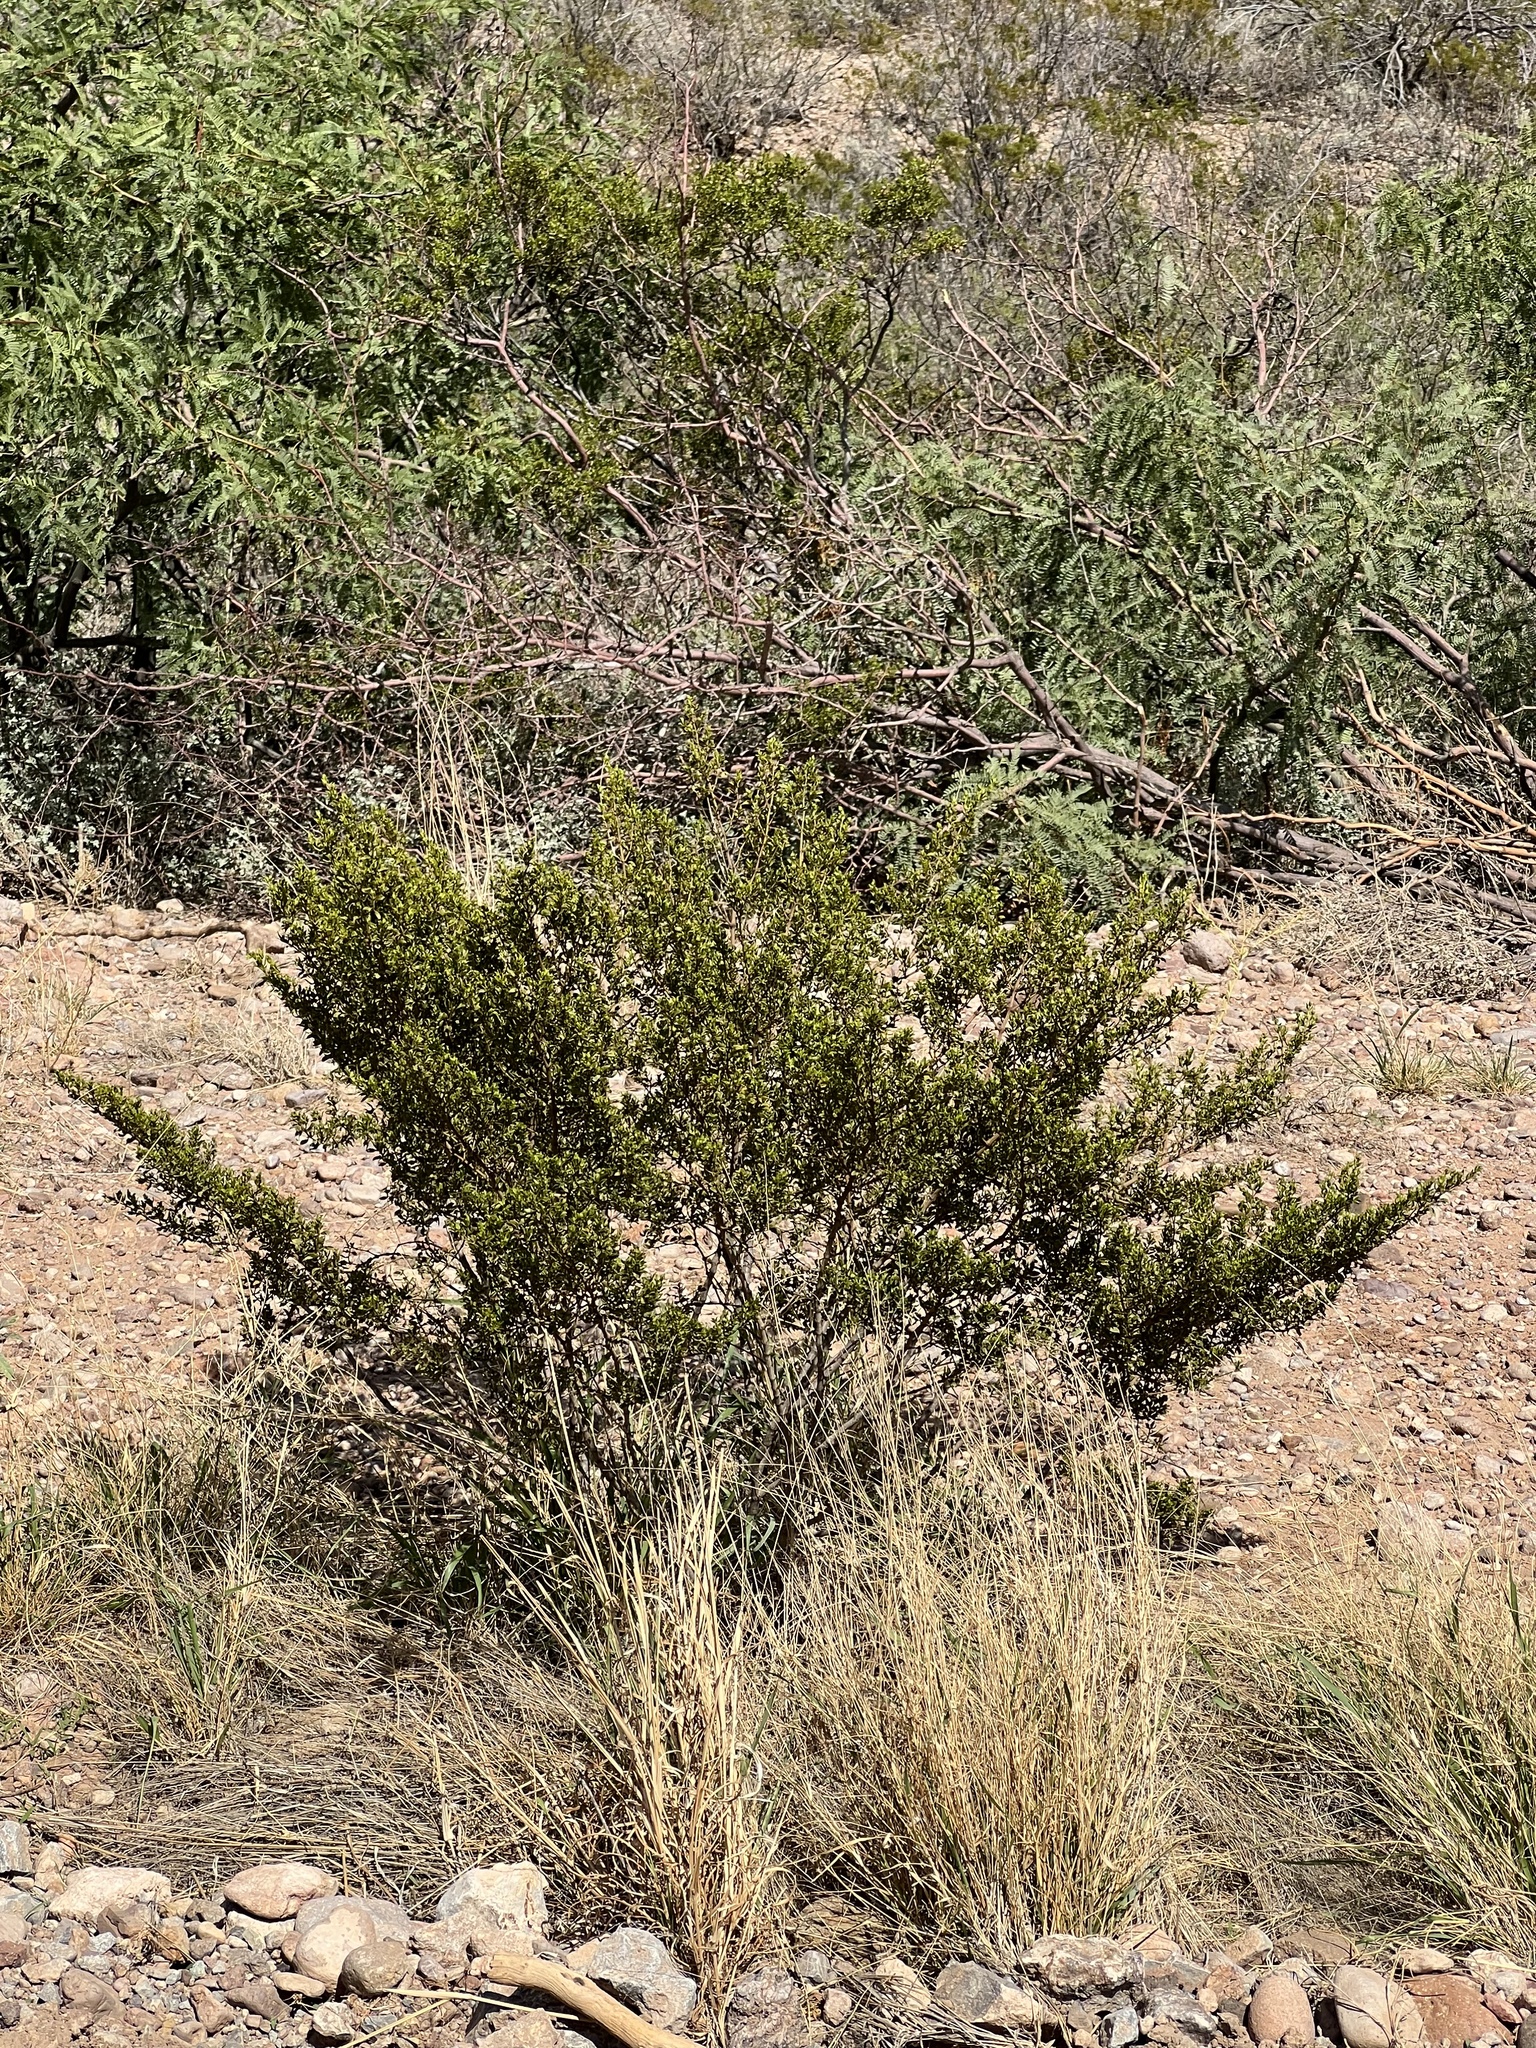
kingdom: Plantae
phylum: Tracheophyta
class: Magnoliopsida
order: Zygophyllales
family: Zygophyllaceae
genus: Larrea
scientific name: Larrea tridentata
